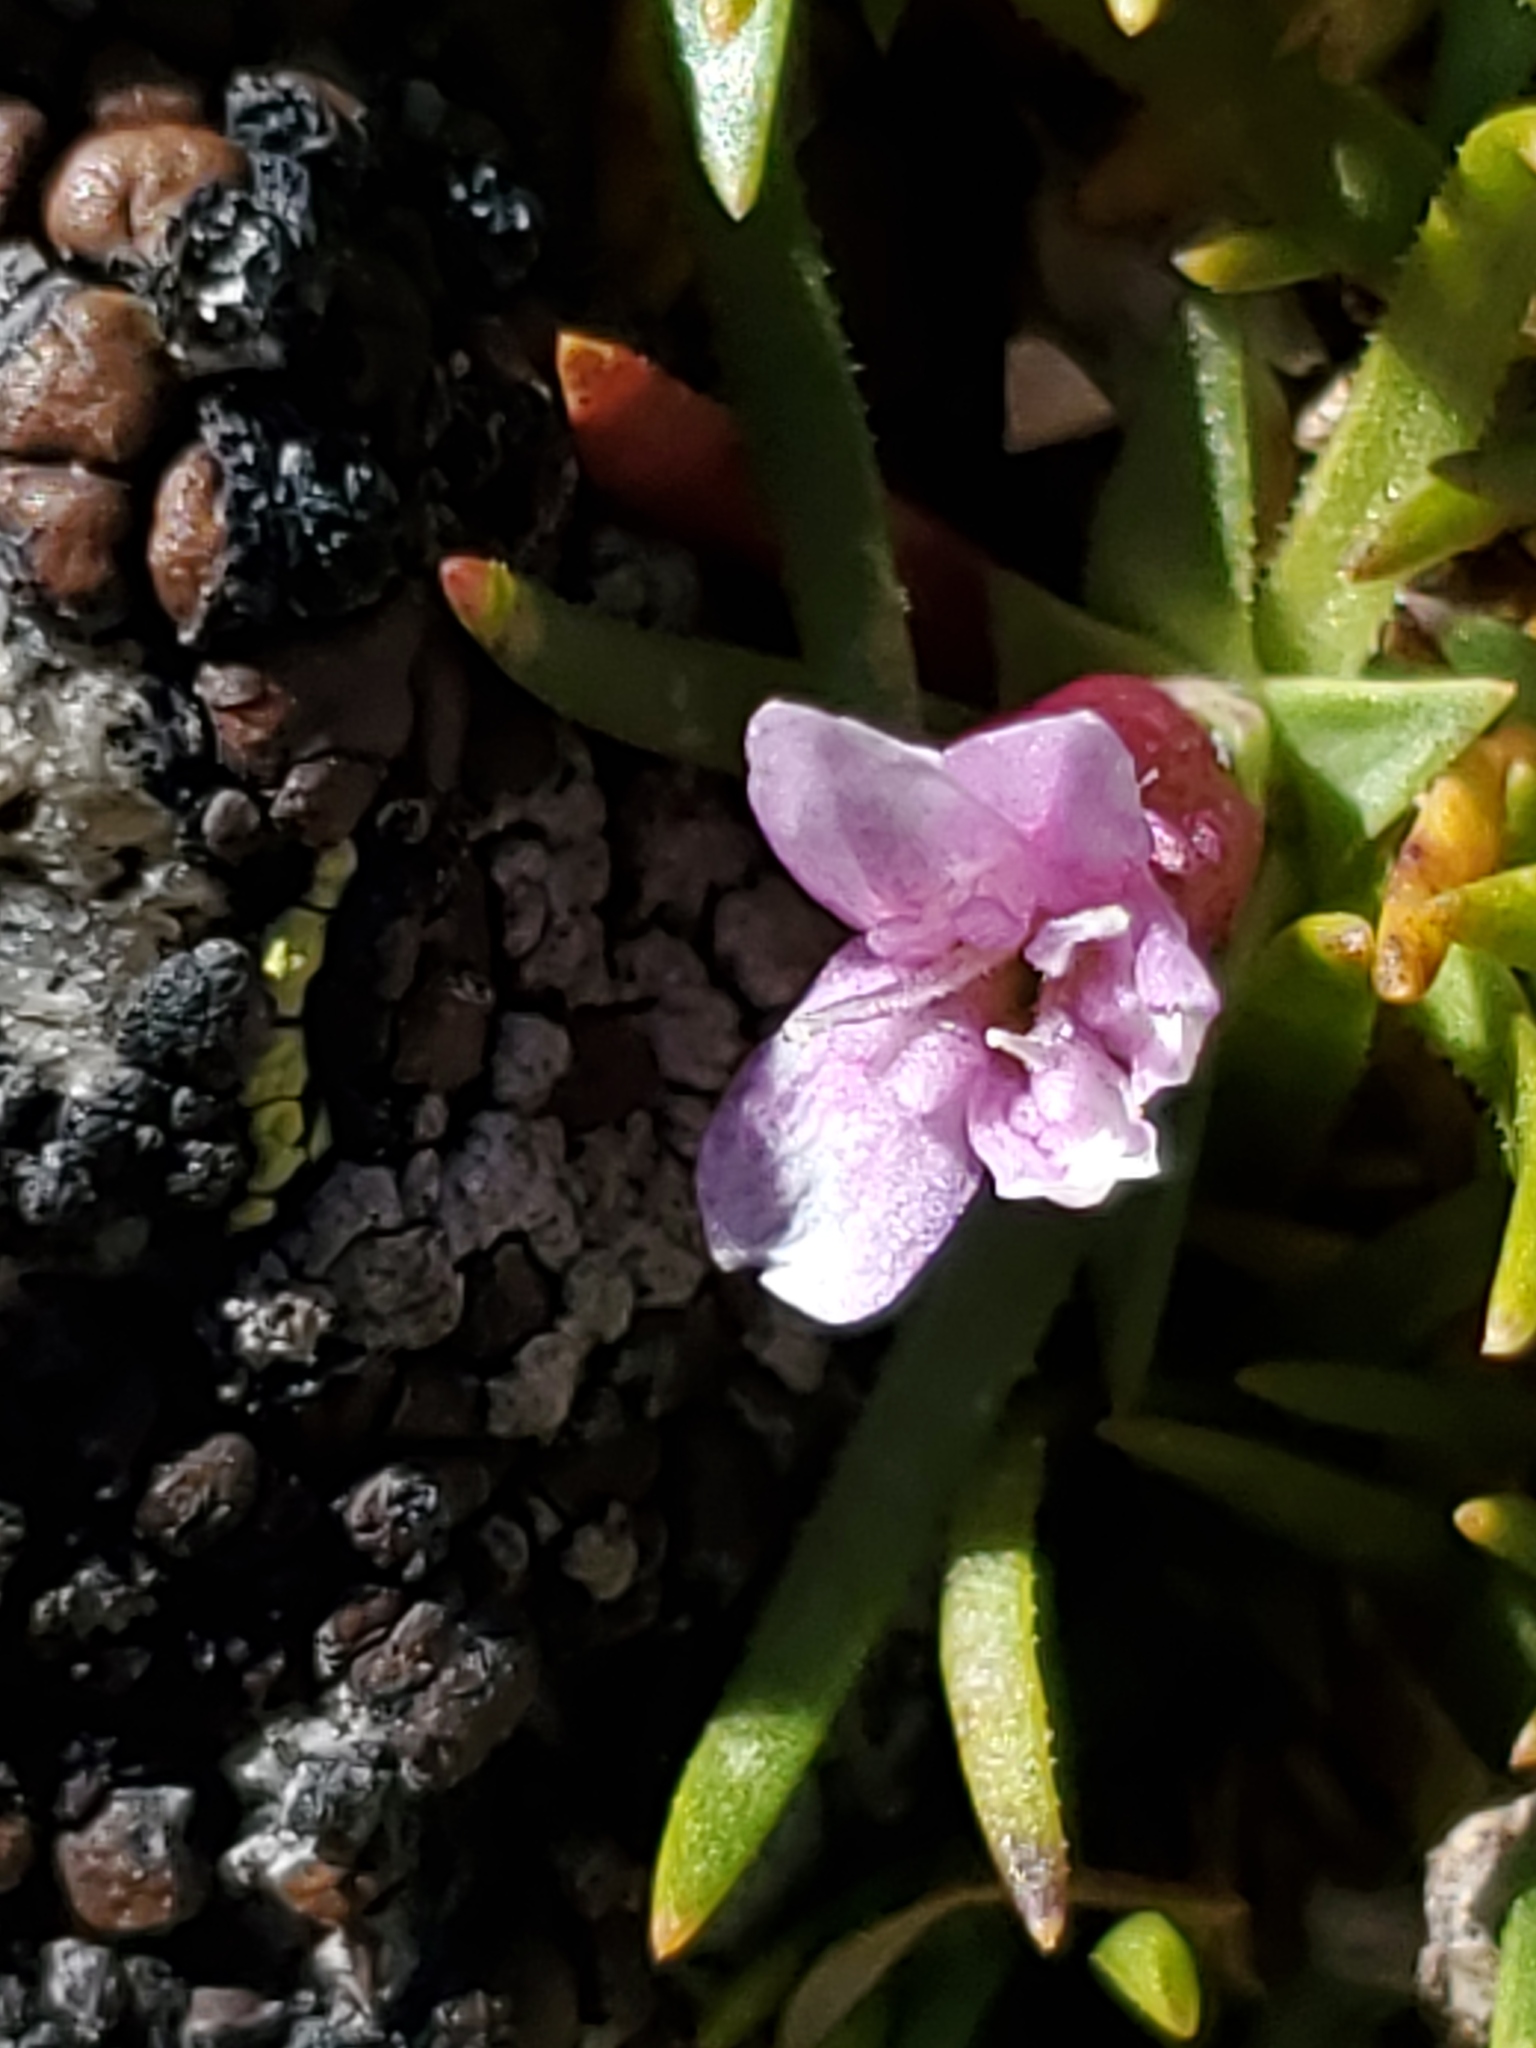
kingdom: Plantae
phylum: Tracheophyta
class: Magnoliopsida
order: Caryophyllales
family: Caryophyllaceae
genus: Silene
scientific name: Silene acaulis
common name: Moss campion
